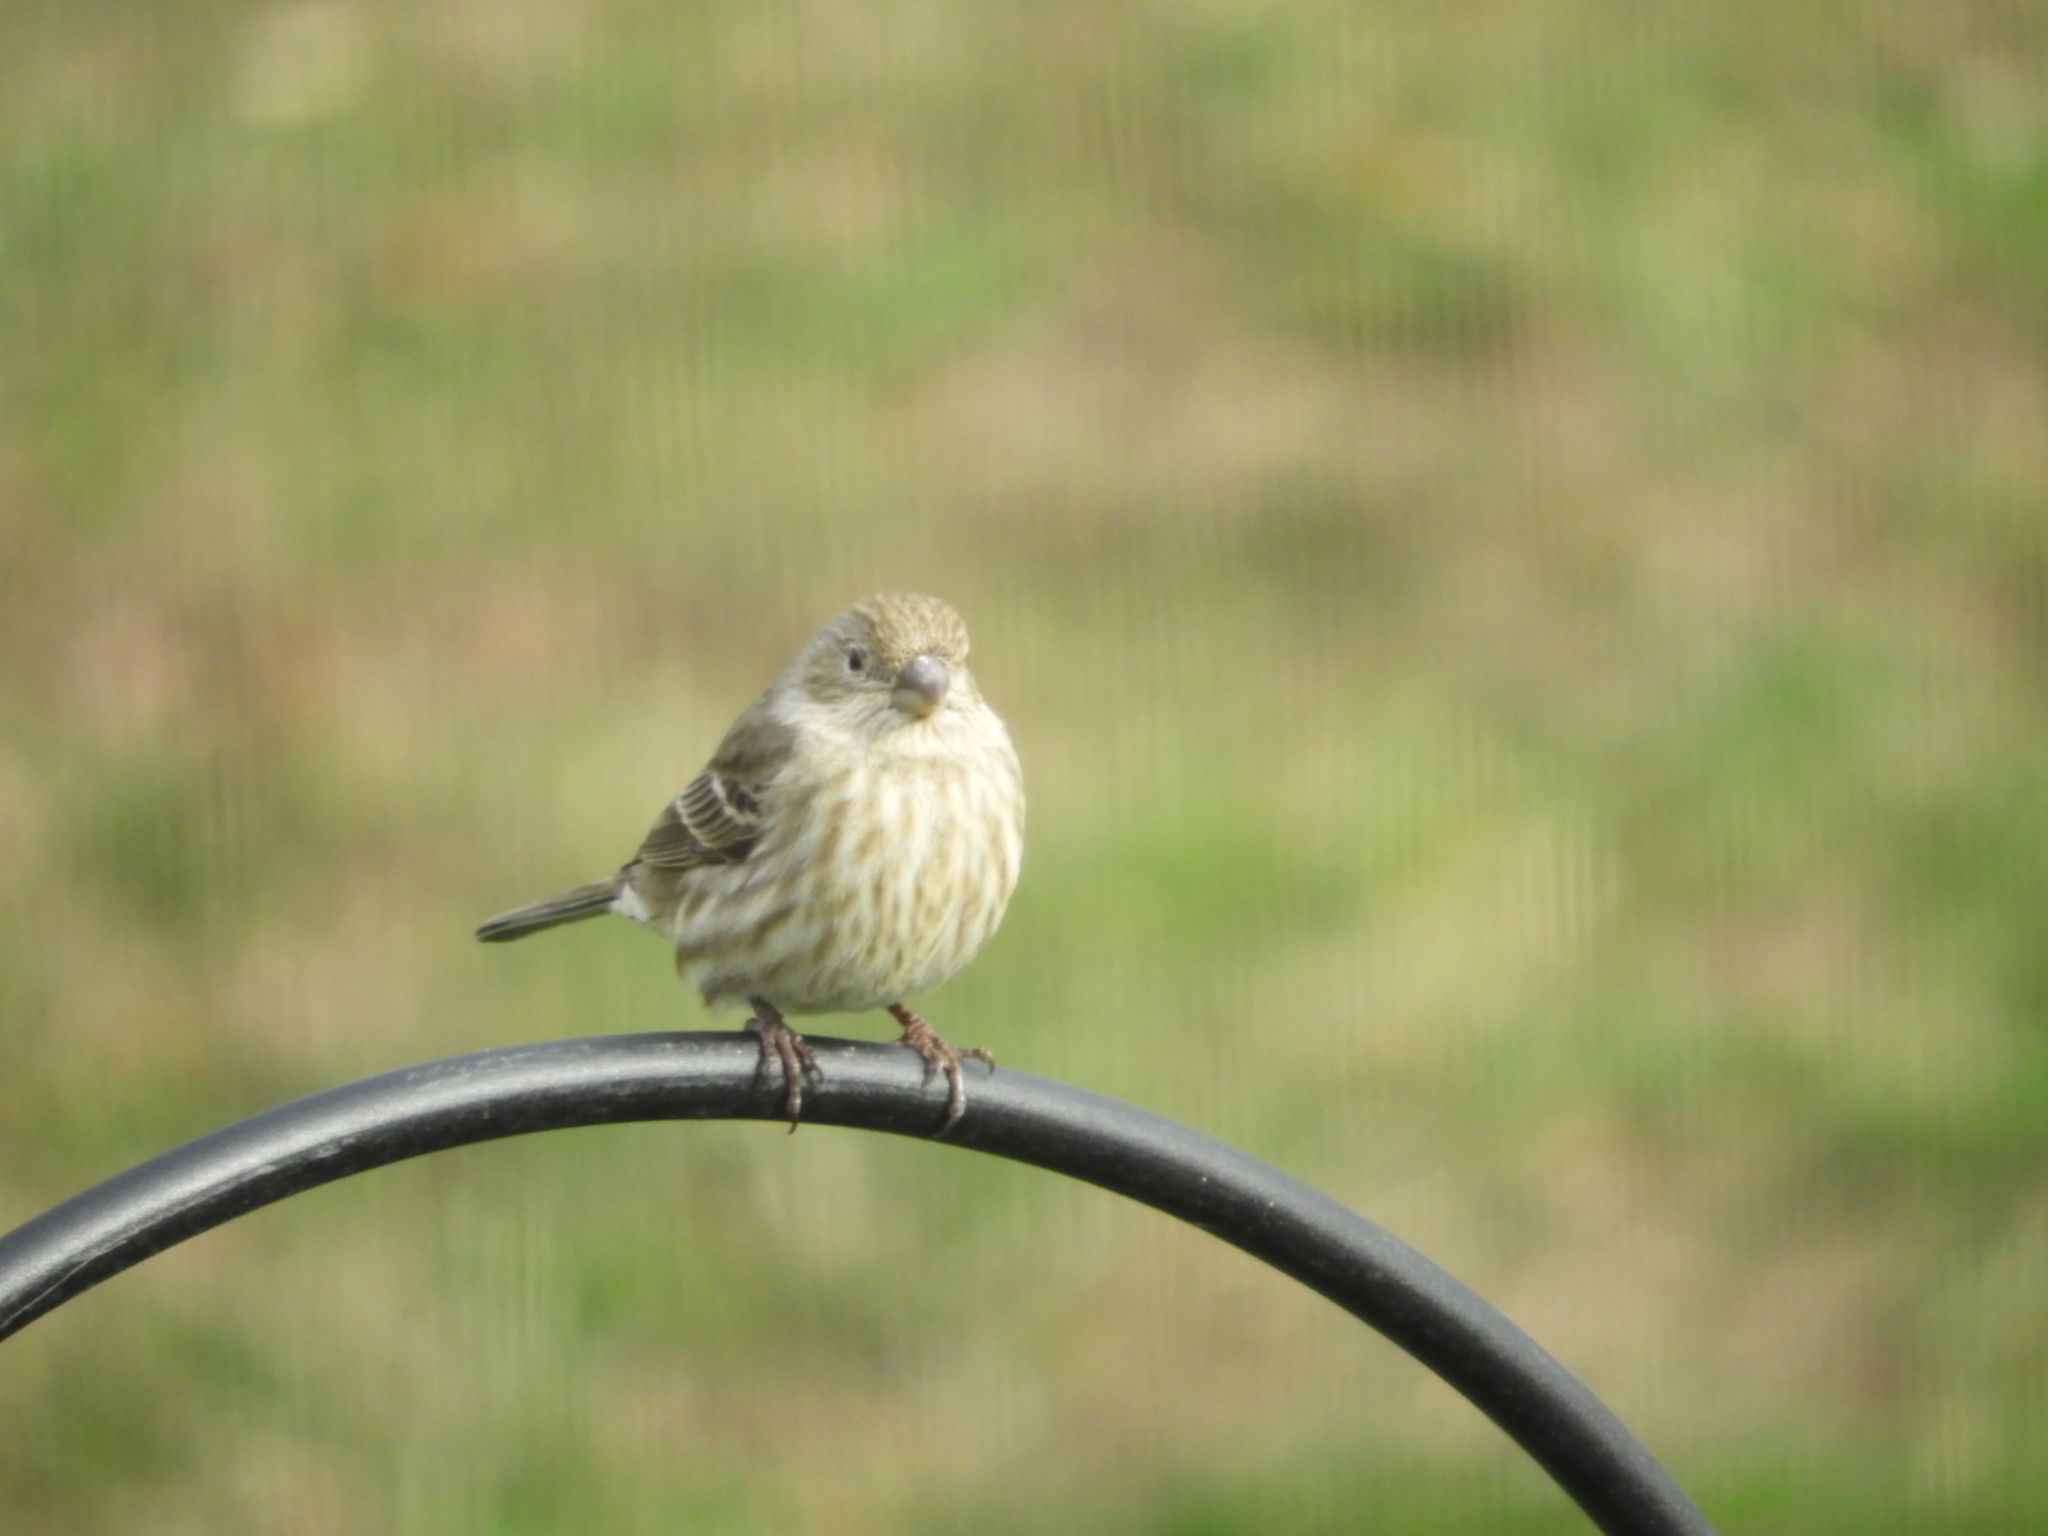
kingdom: Animalia
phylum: Chordata
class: Aves
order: Passeriformes
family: Fringillidae
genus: Haemorhous
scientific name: Haemorhous mexicanus
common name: House finch
